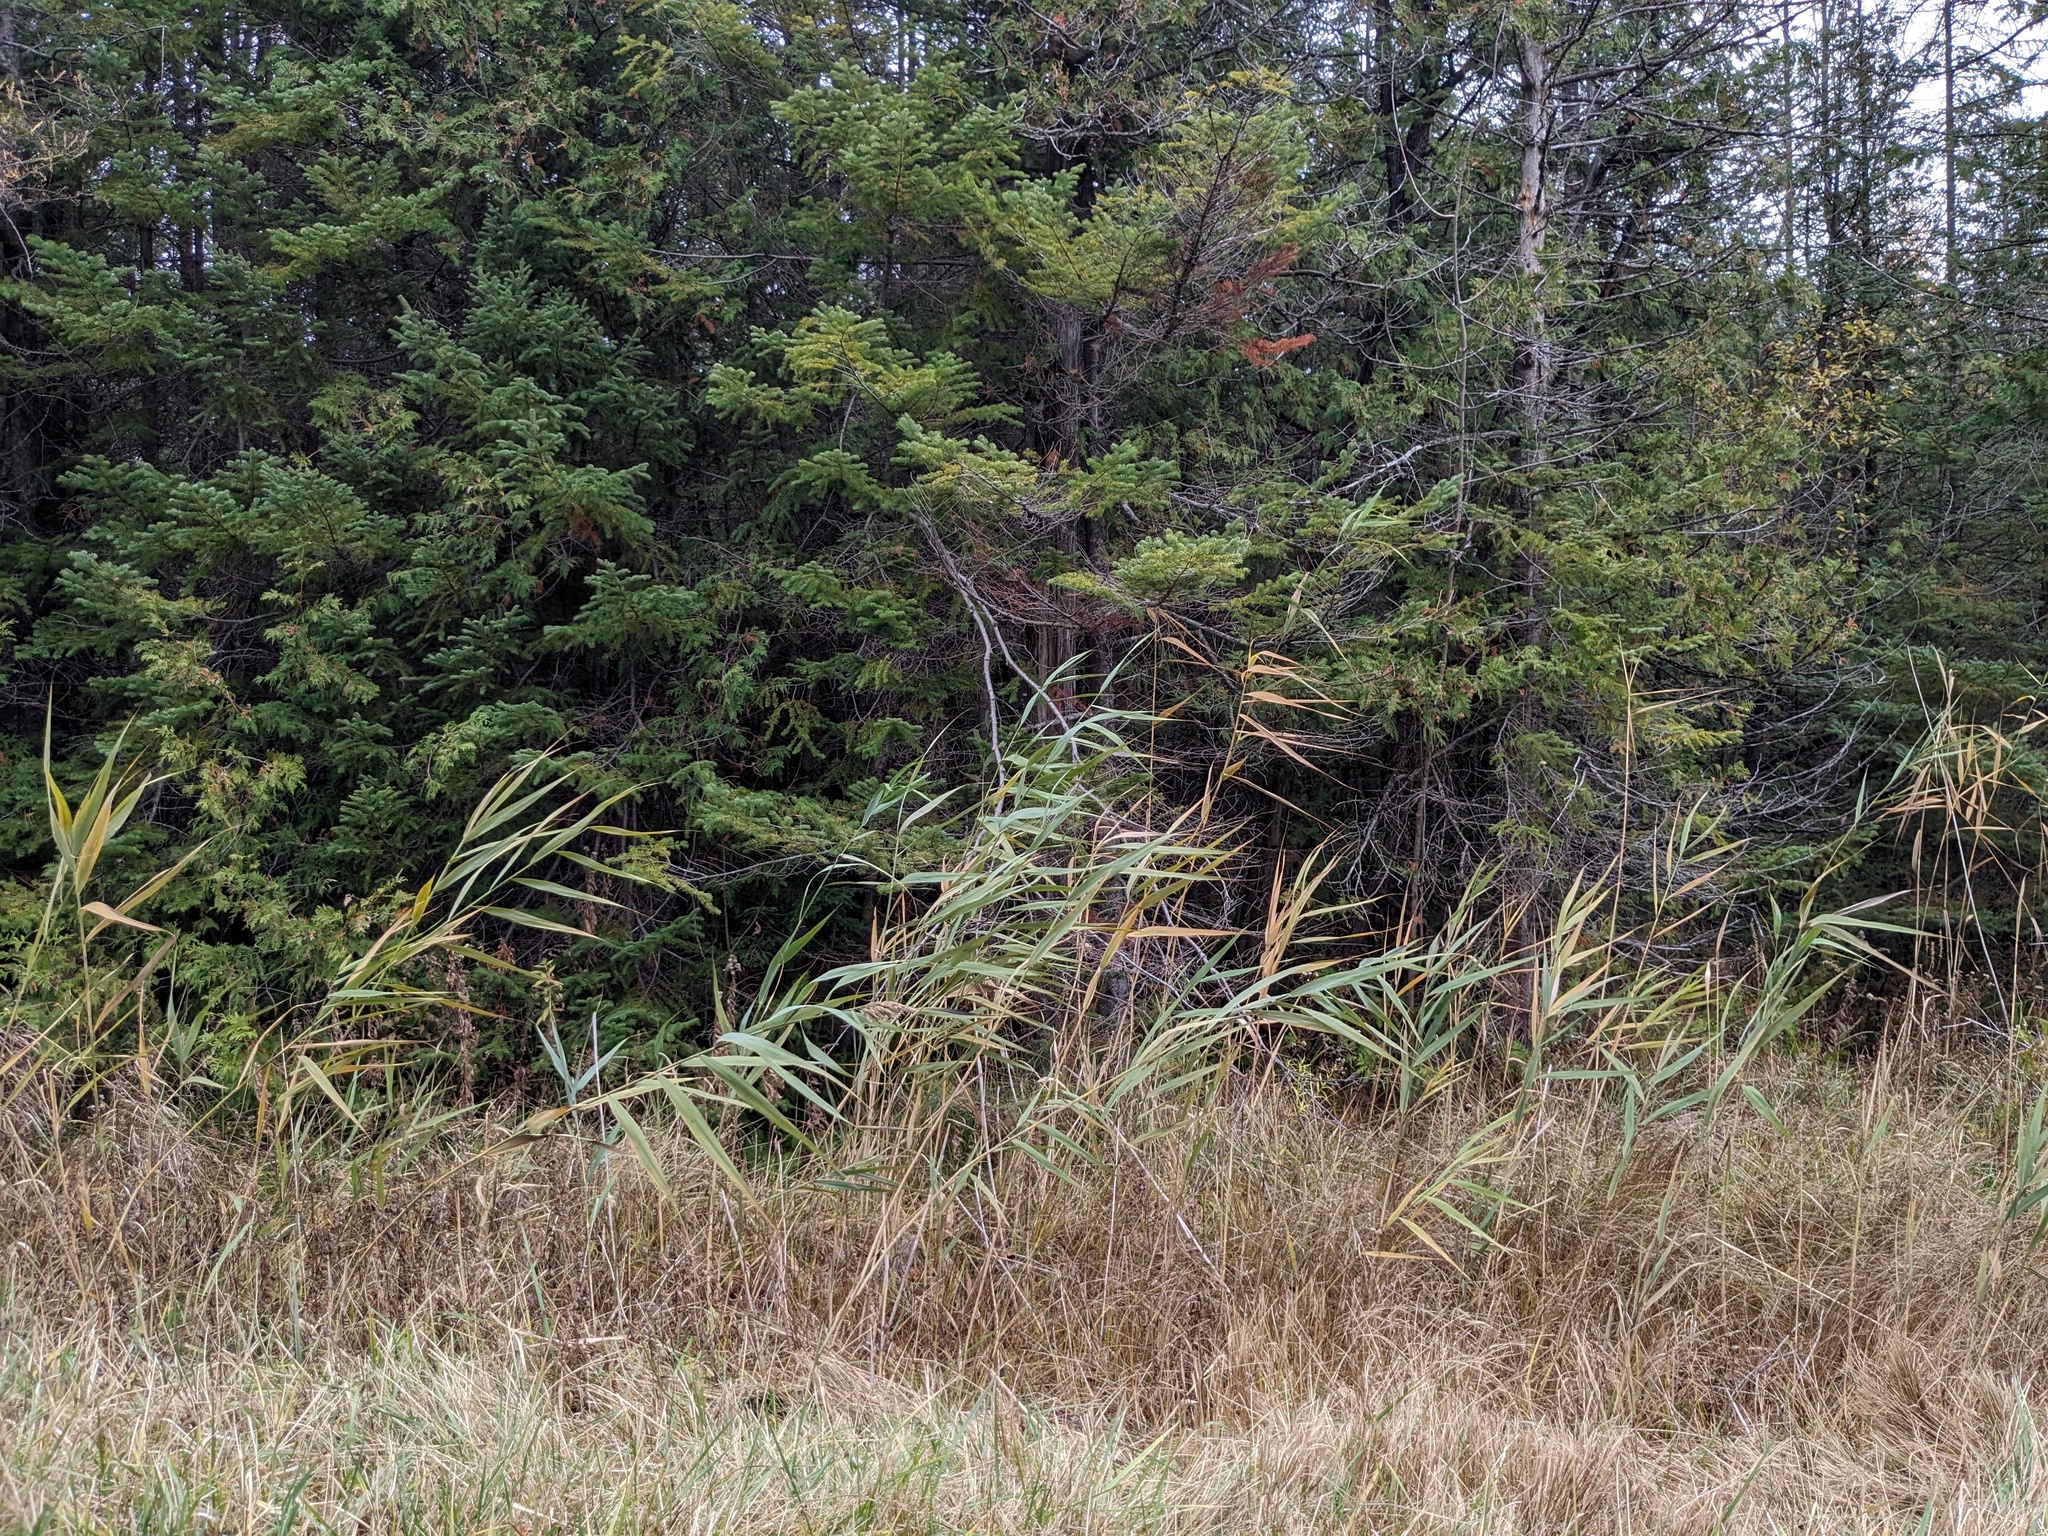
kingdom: Plantae
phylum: Tracheophyta
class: Liliopsida
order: Poales
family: Poaceae
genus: Phragmites
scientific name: Phragmites australis
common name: Common reed
